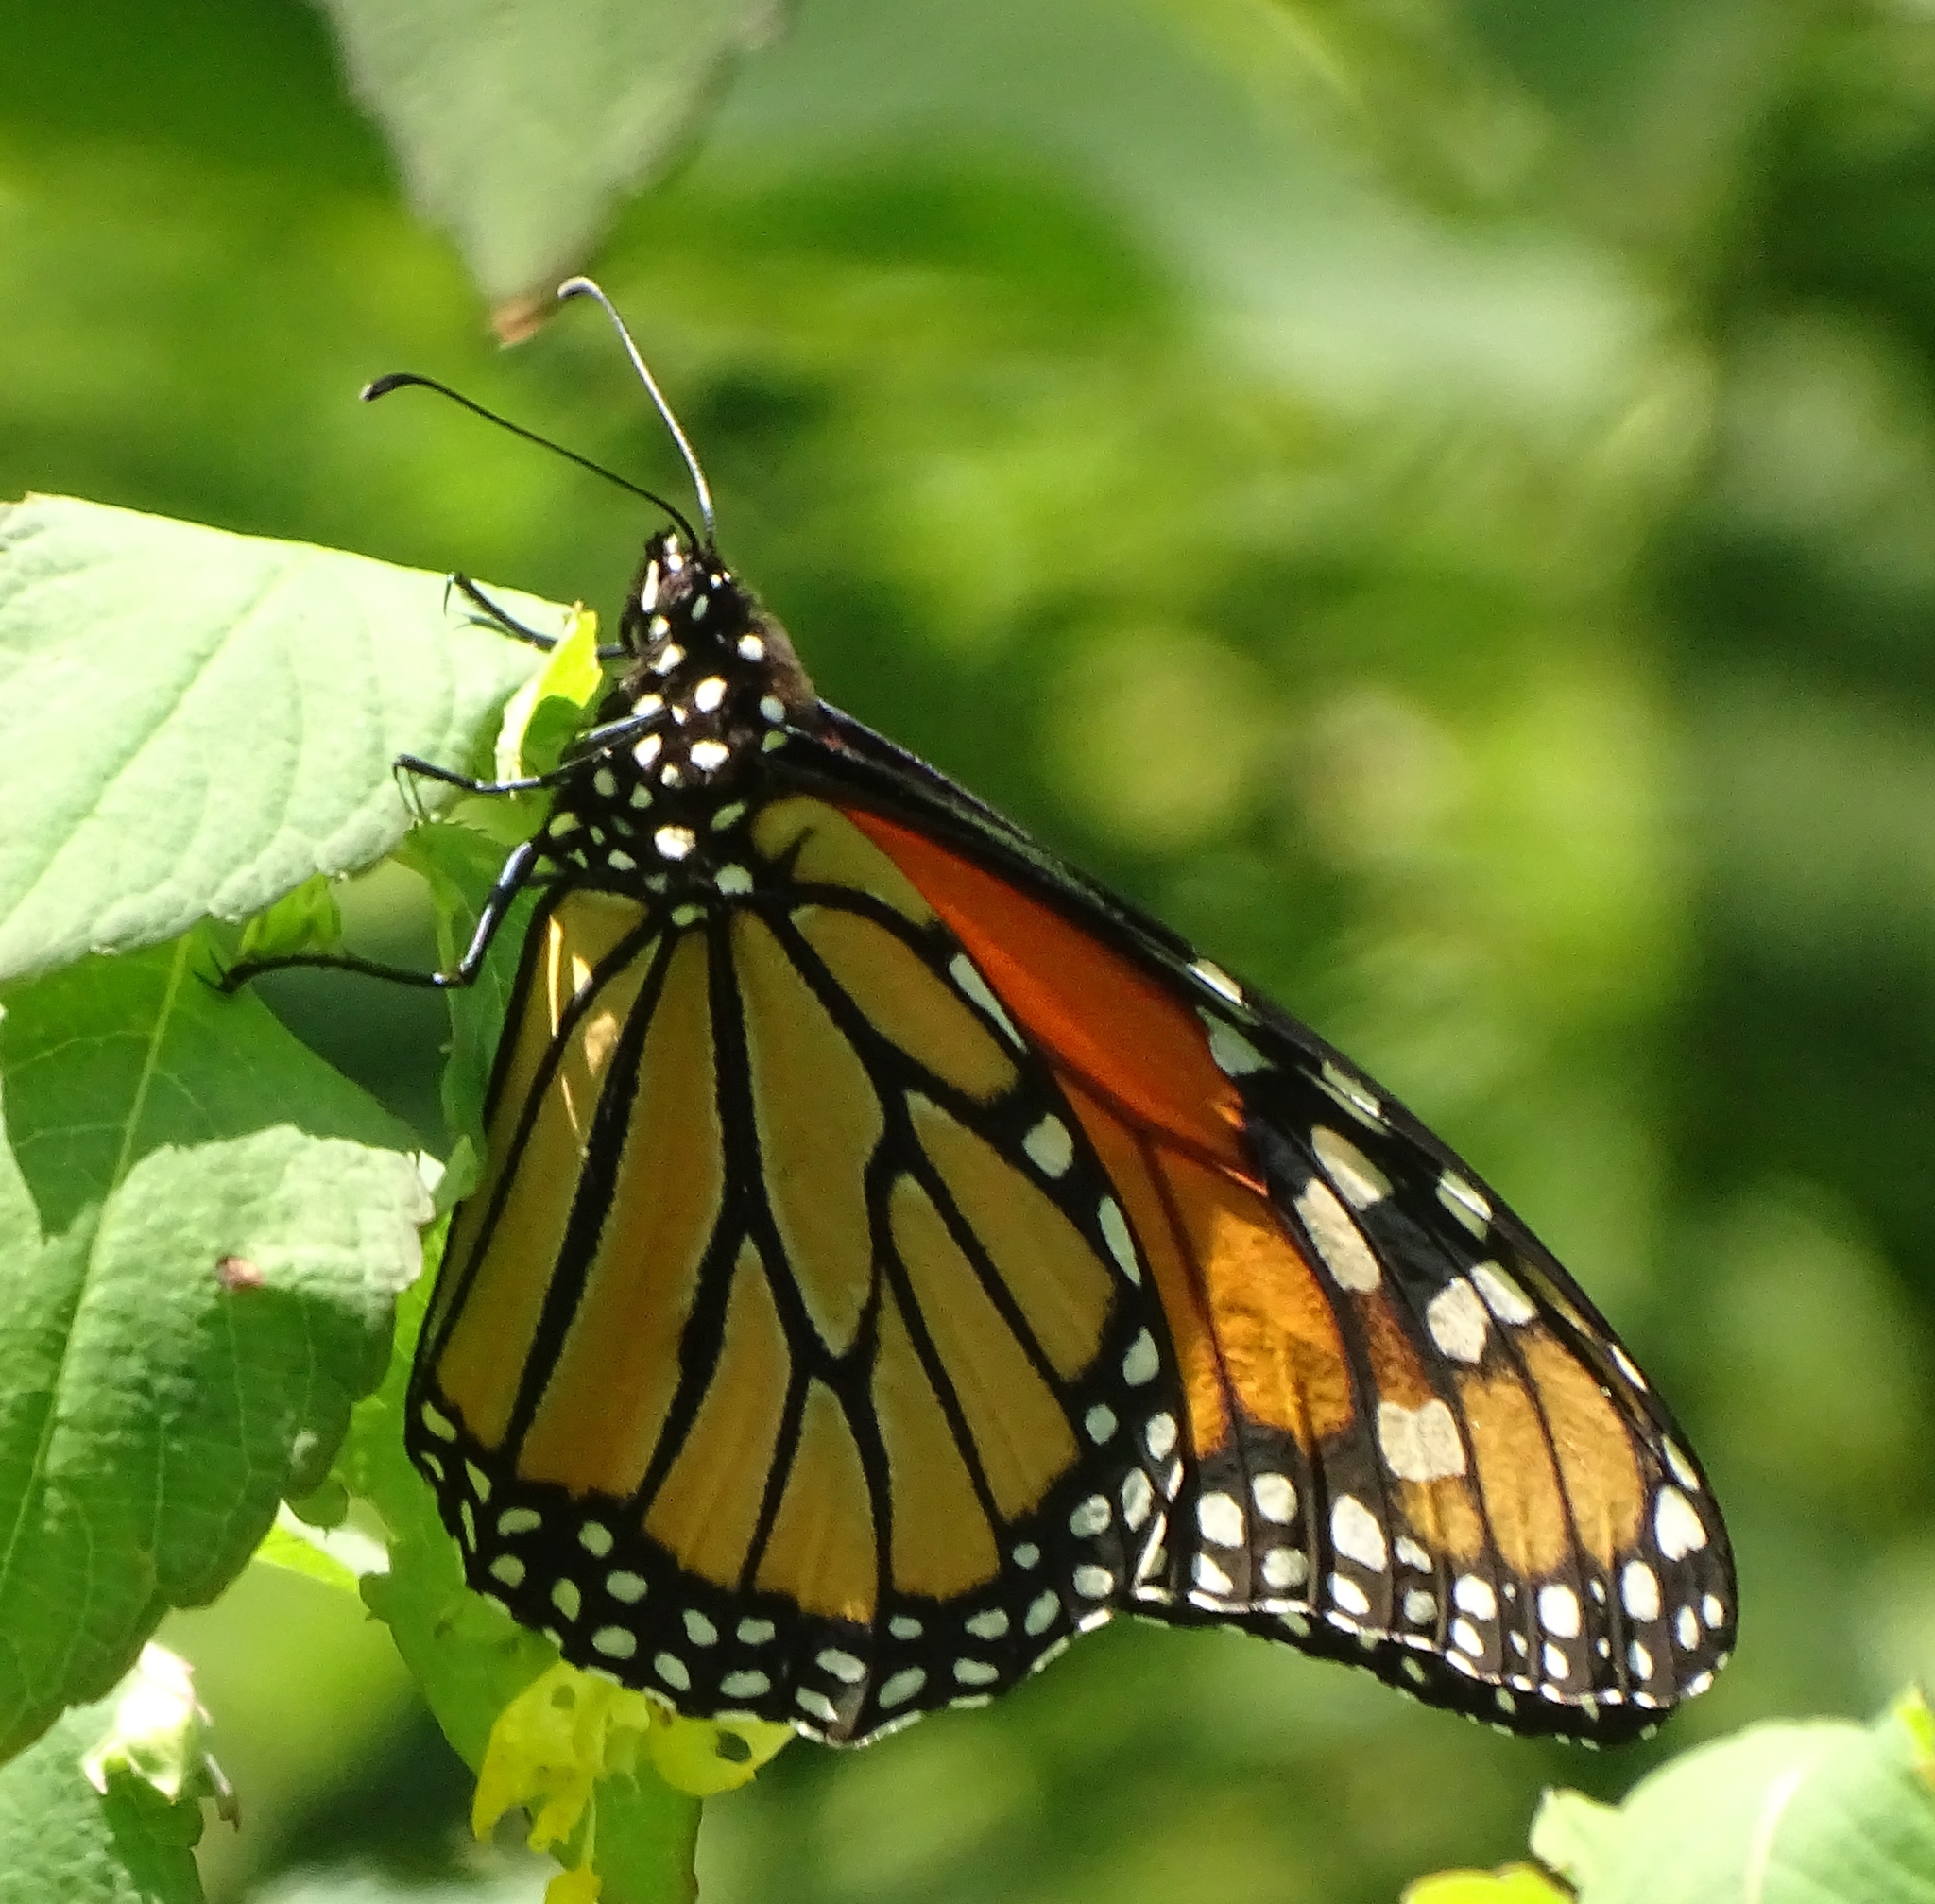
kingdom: Animalia
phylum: Arthropoda
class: Insecta
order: Lepidoptera
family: Nymphalidae
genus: Danaus
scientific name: Danaus plexippus
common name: Monarch
